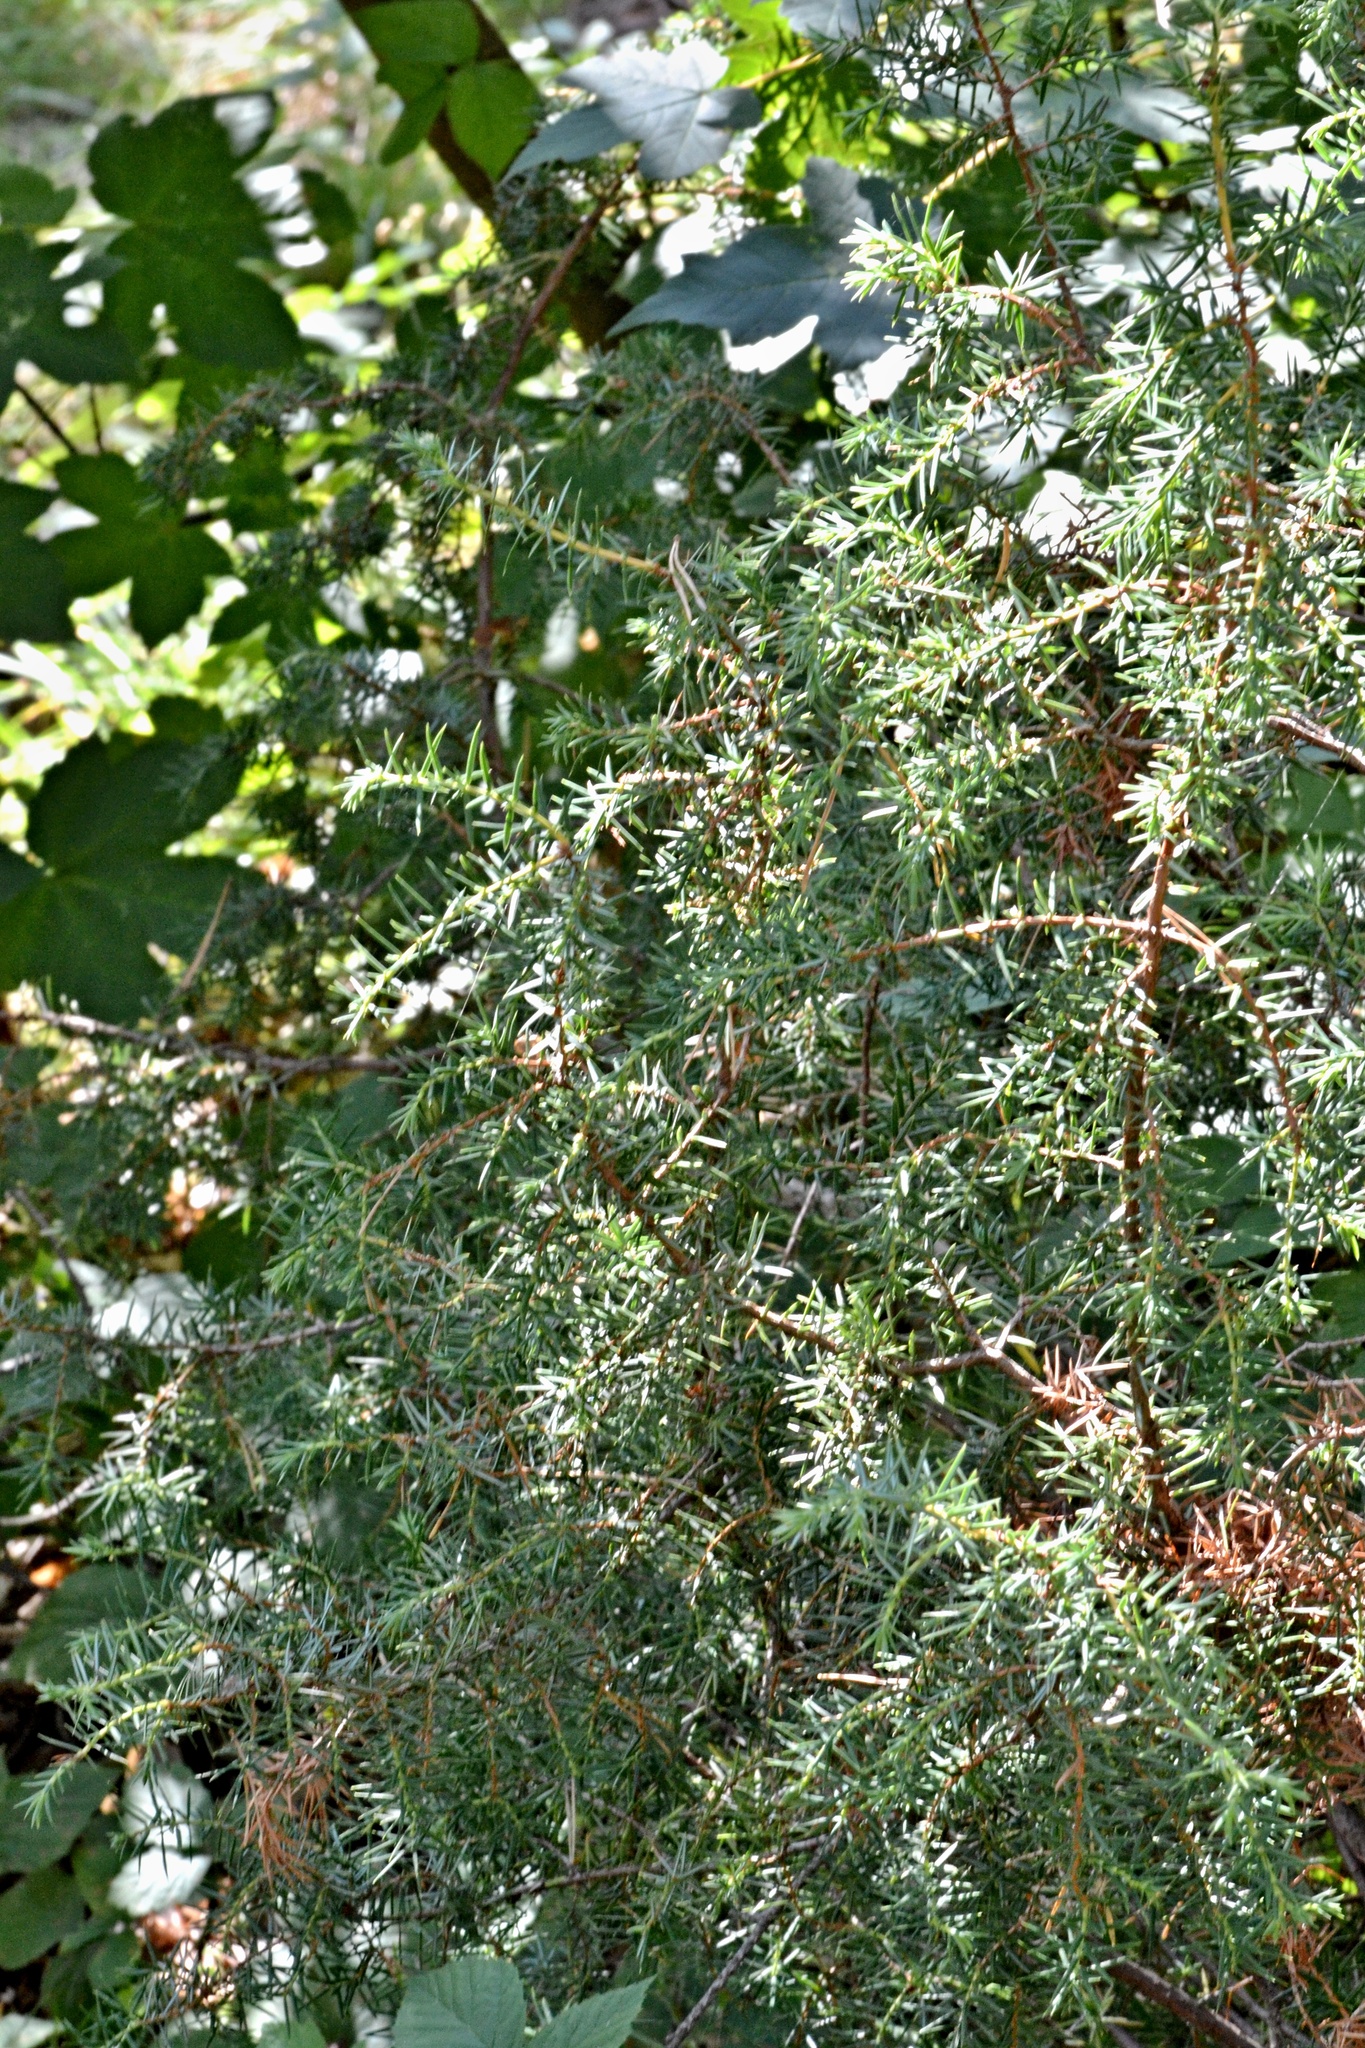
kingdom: Plantae
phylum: Tracheophyta
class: Pinopsida
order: Pinales
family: Cupressaceae
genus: Juniperus
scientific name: Juniperus communis
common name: Common juniper
